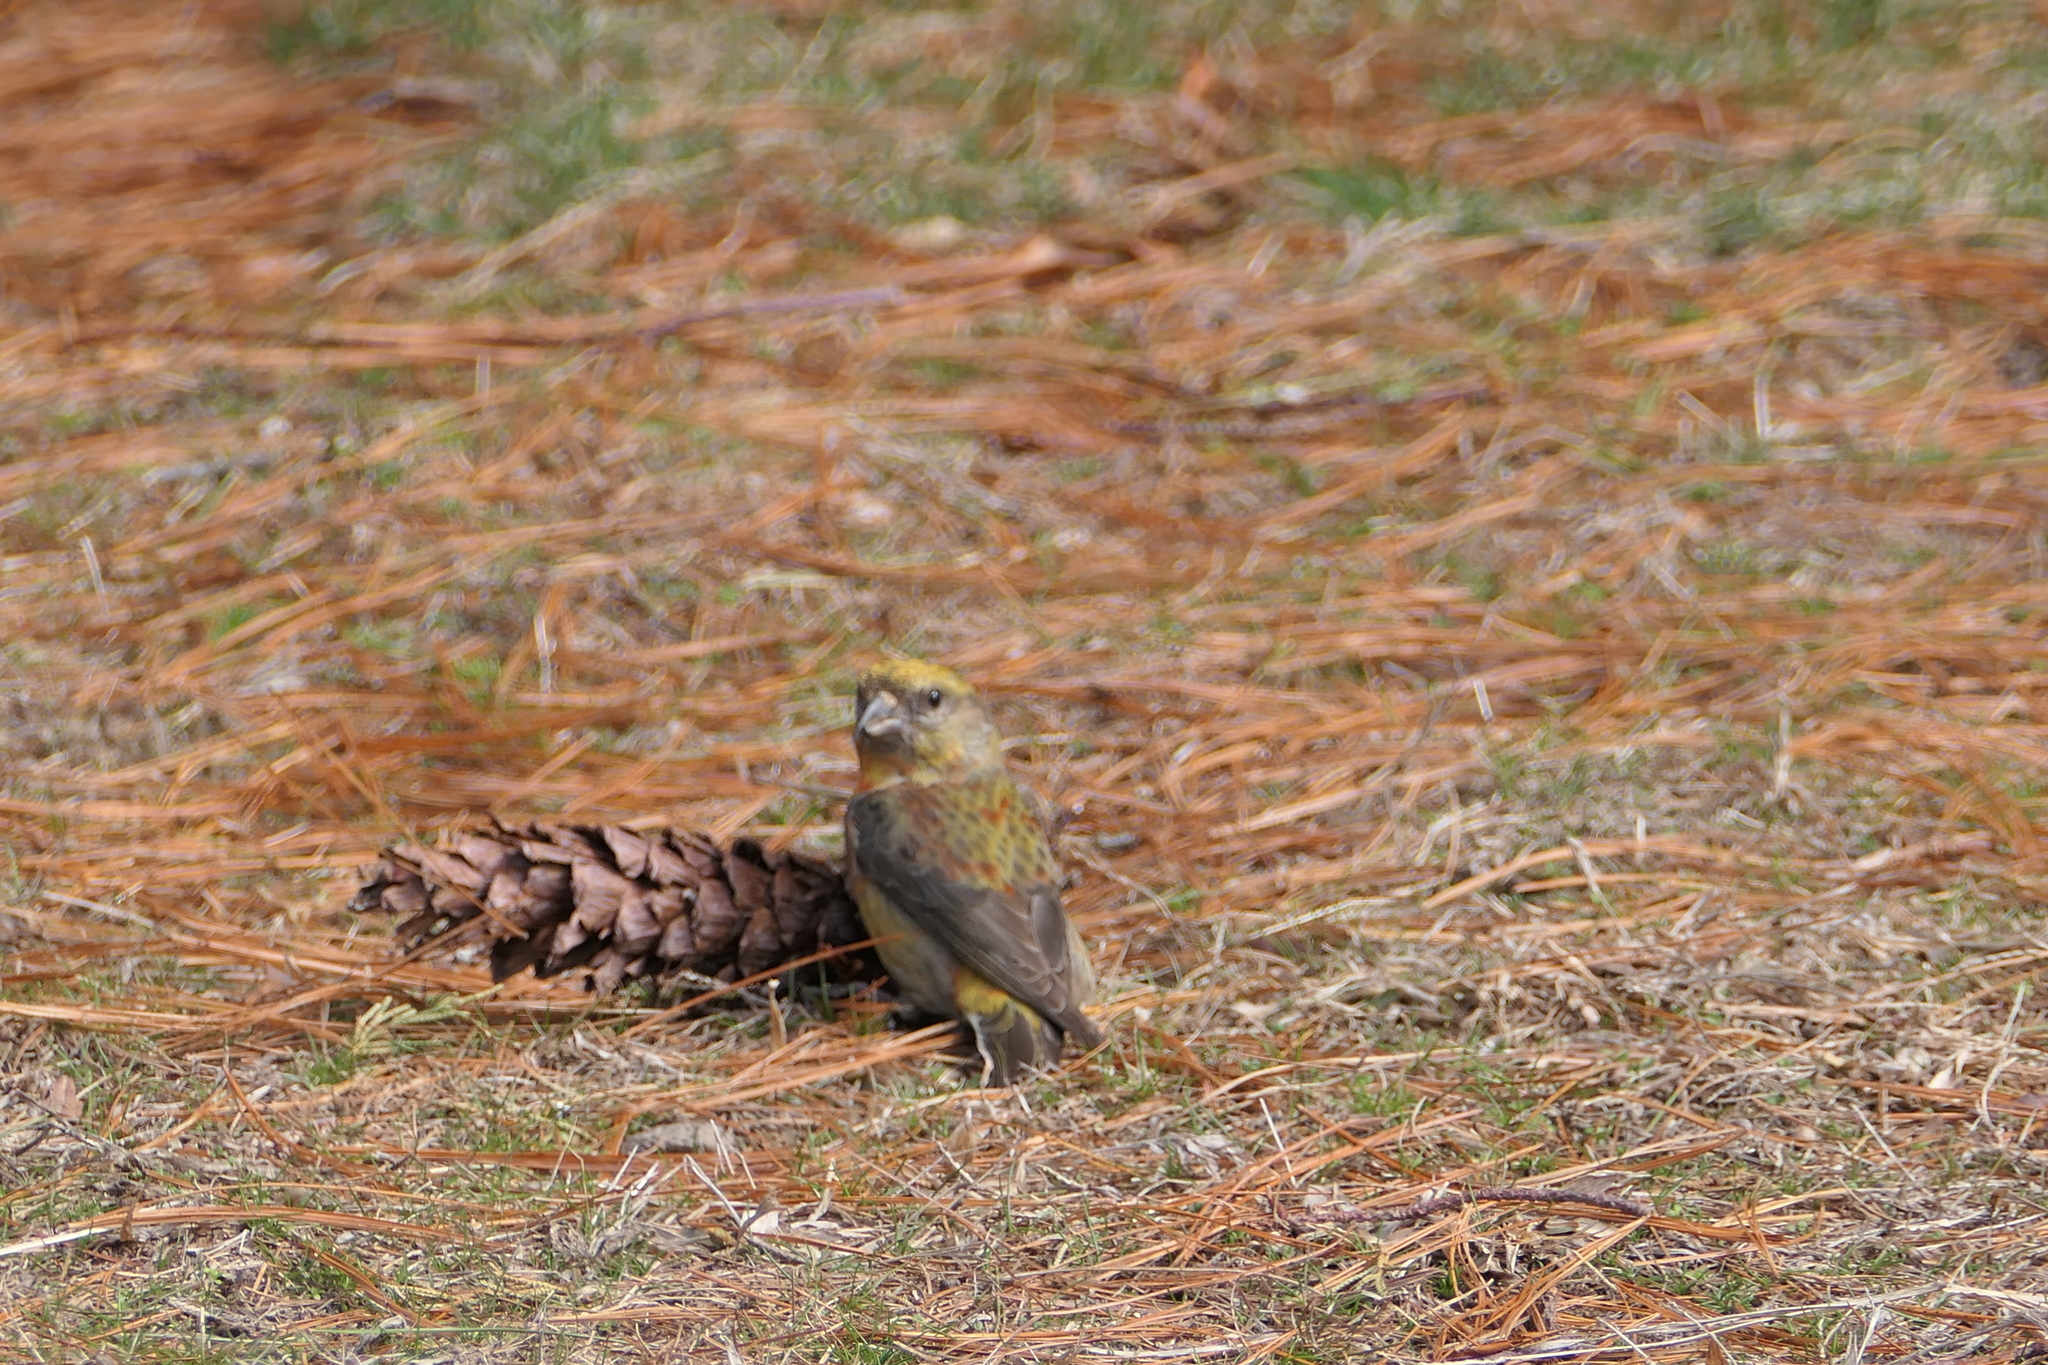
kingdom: Animalia
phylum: Chordata
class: Aves
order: Passeriformes
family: Fringillidae
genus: Loxia
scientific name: Loxia curvirostra
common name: Red crossbill
